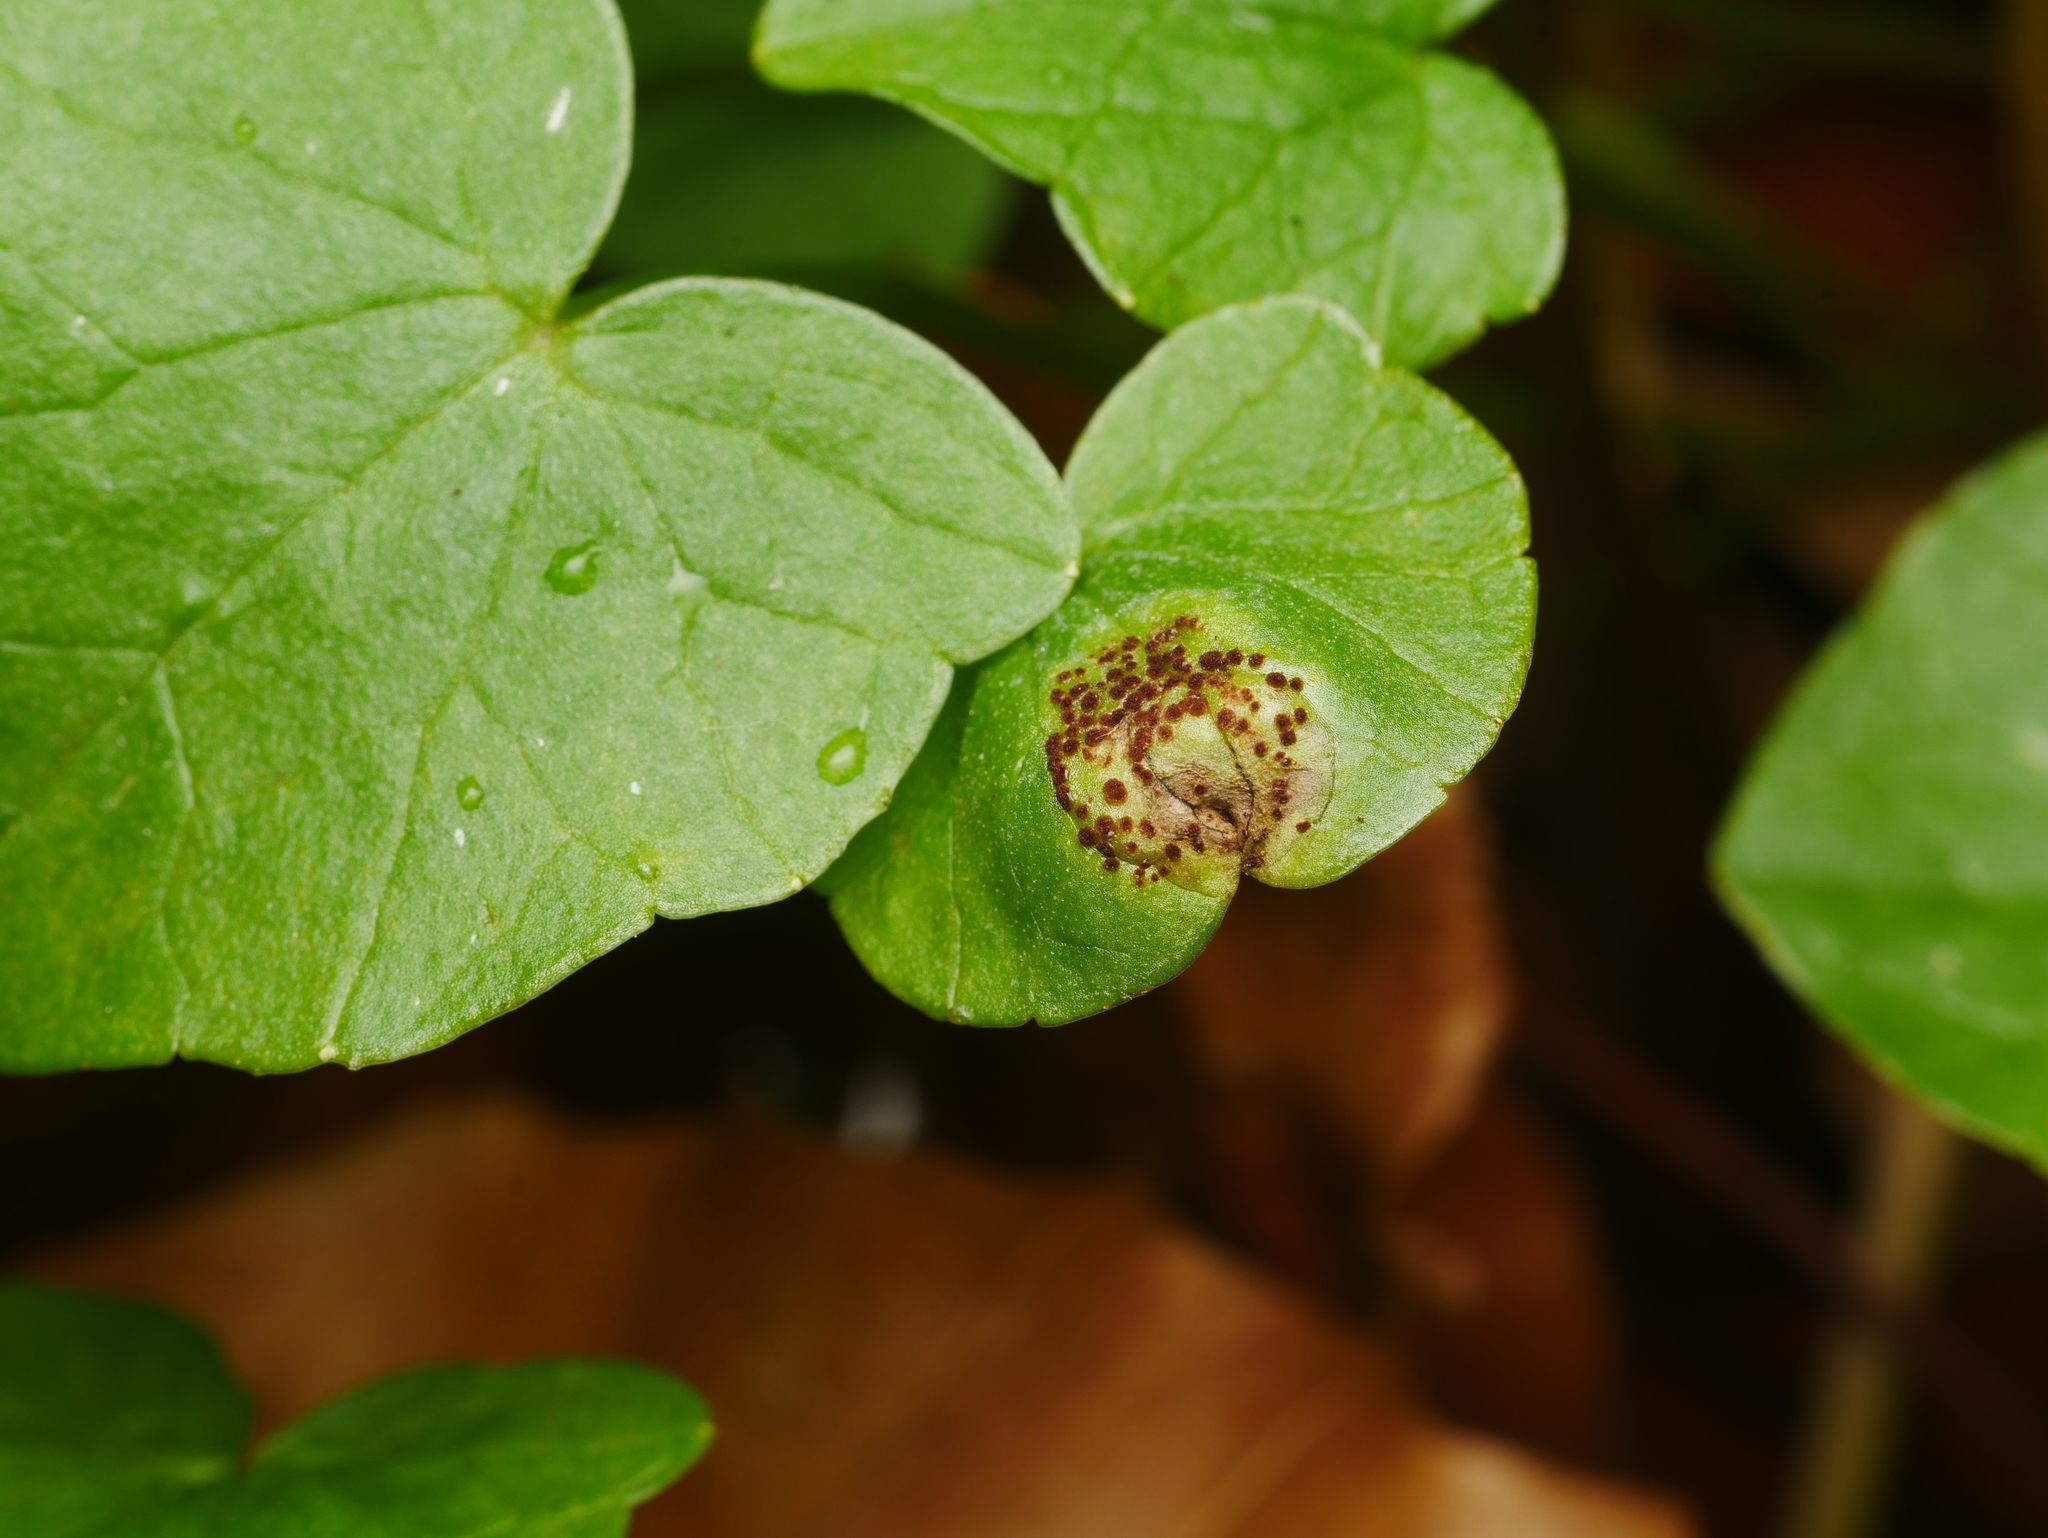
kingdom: Fungi
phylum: Basidiomycota
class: Pucciniomycetes
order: Pucciniales
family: Pucciniaceae
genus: Uromyces
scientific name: Uromyces ficariae
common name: Bitter chocolate rust
